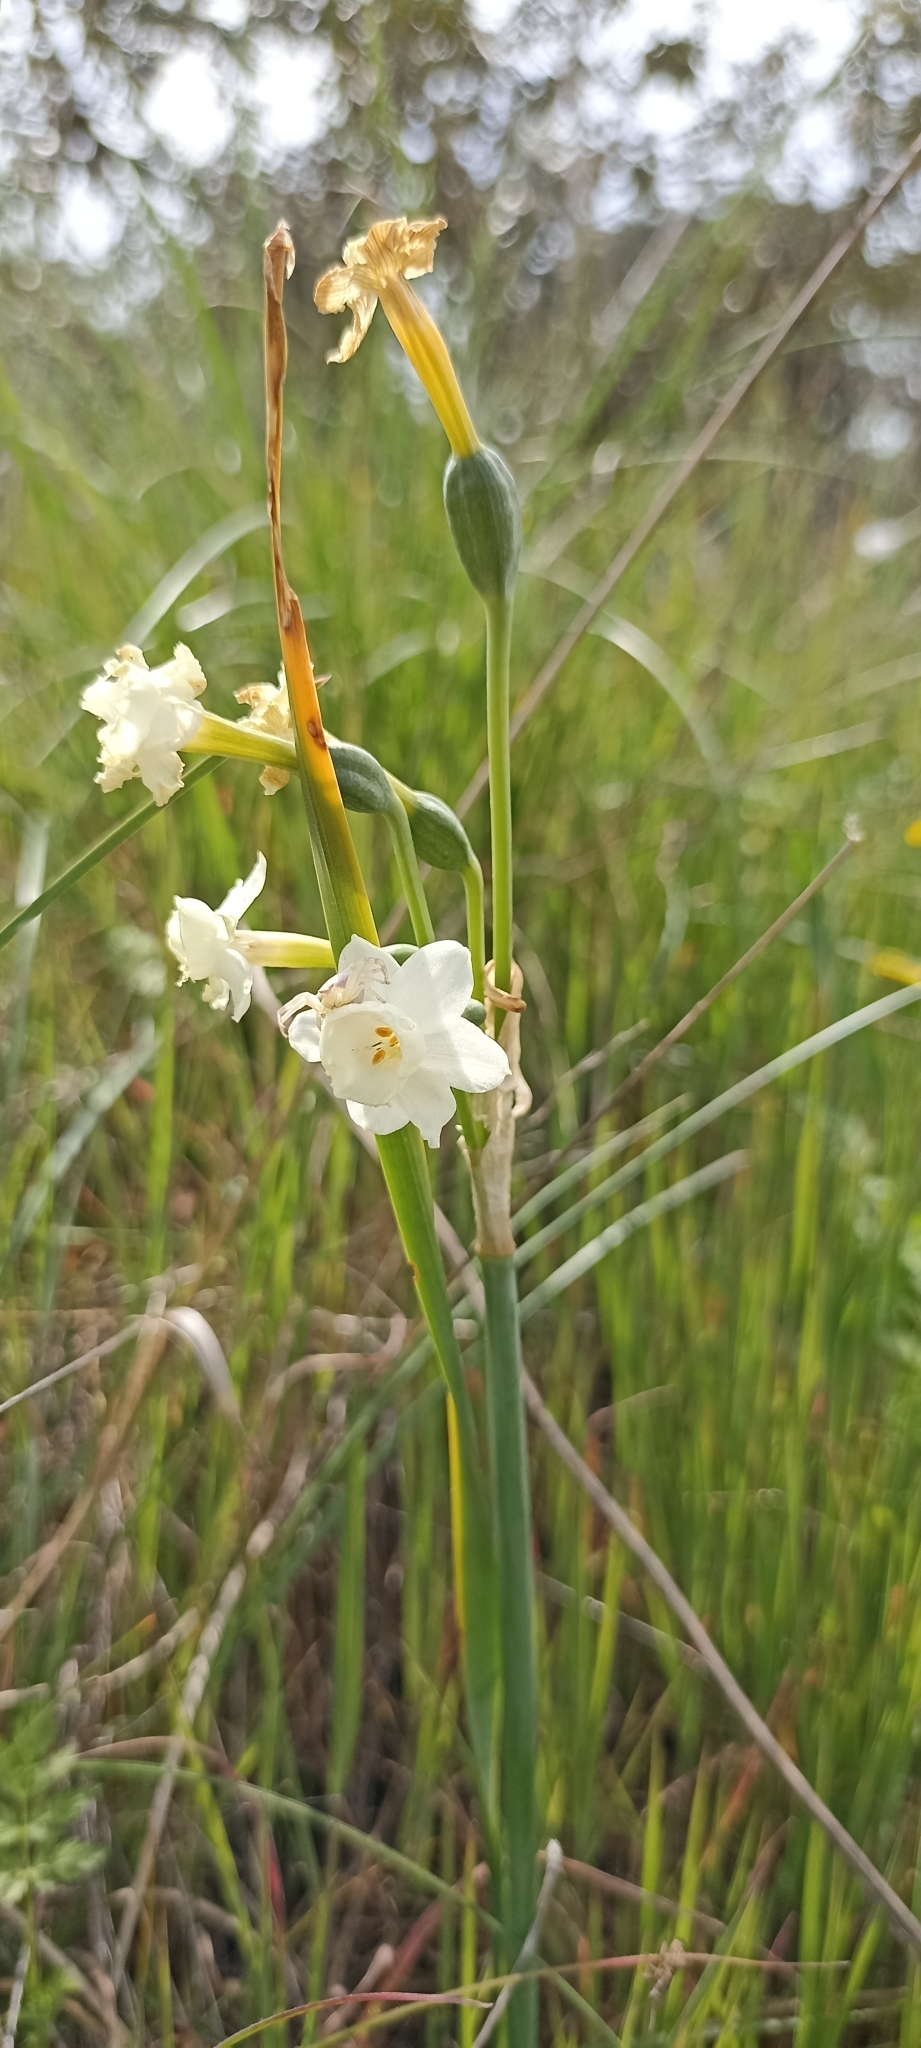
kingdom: Plantae
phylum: Tracheophyta
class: Liliopsida
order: Asparagales
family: Amaryllidaceae
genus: Narcissus
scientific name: Narcissus dubius
